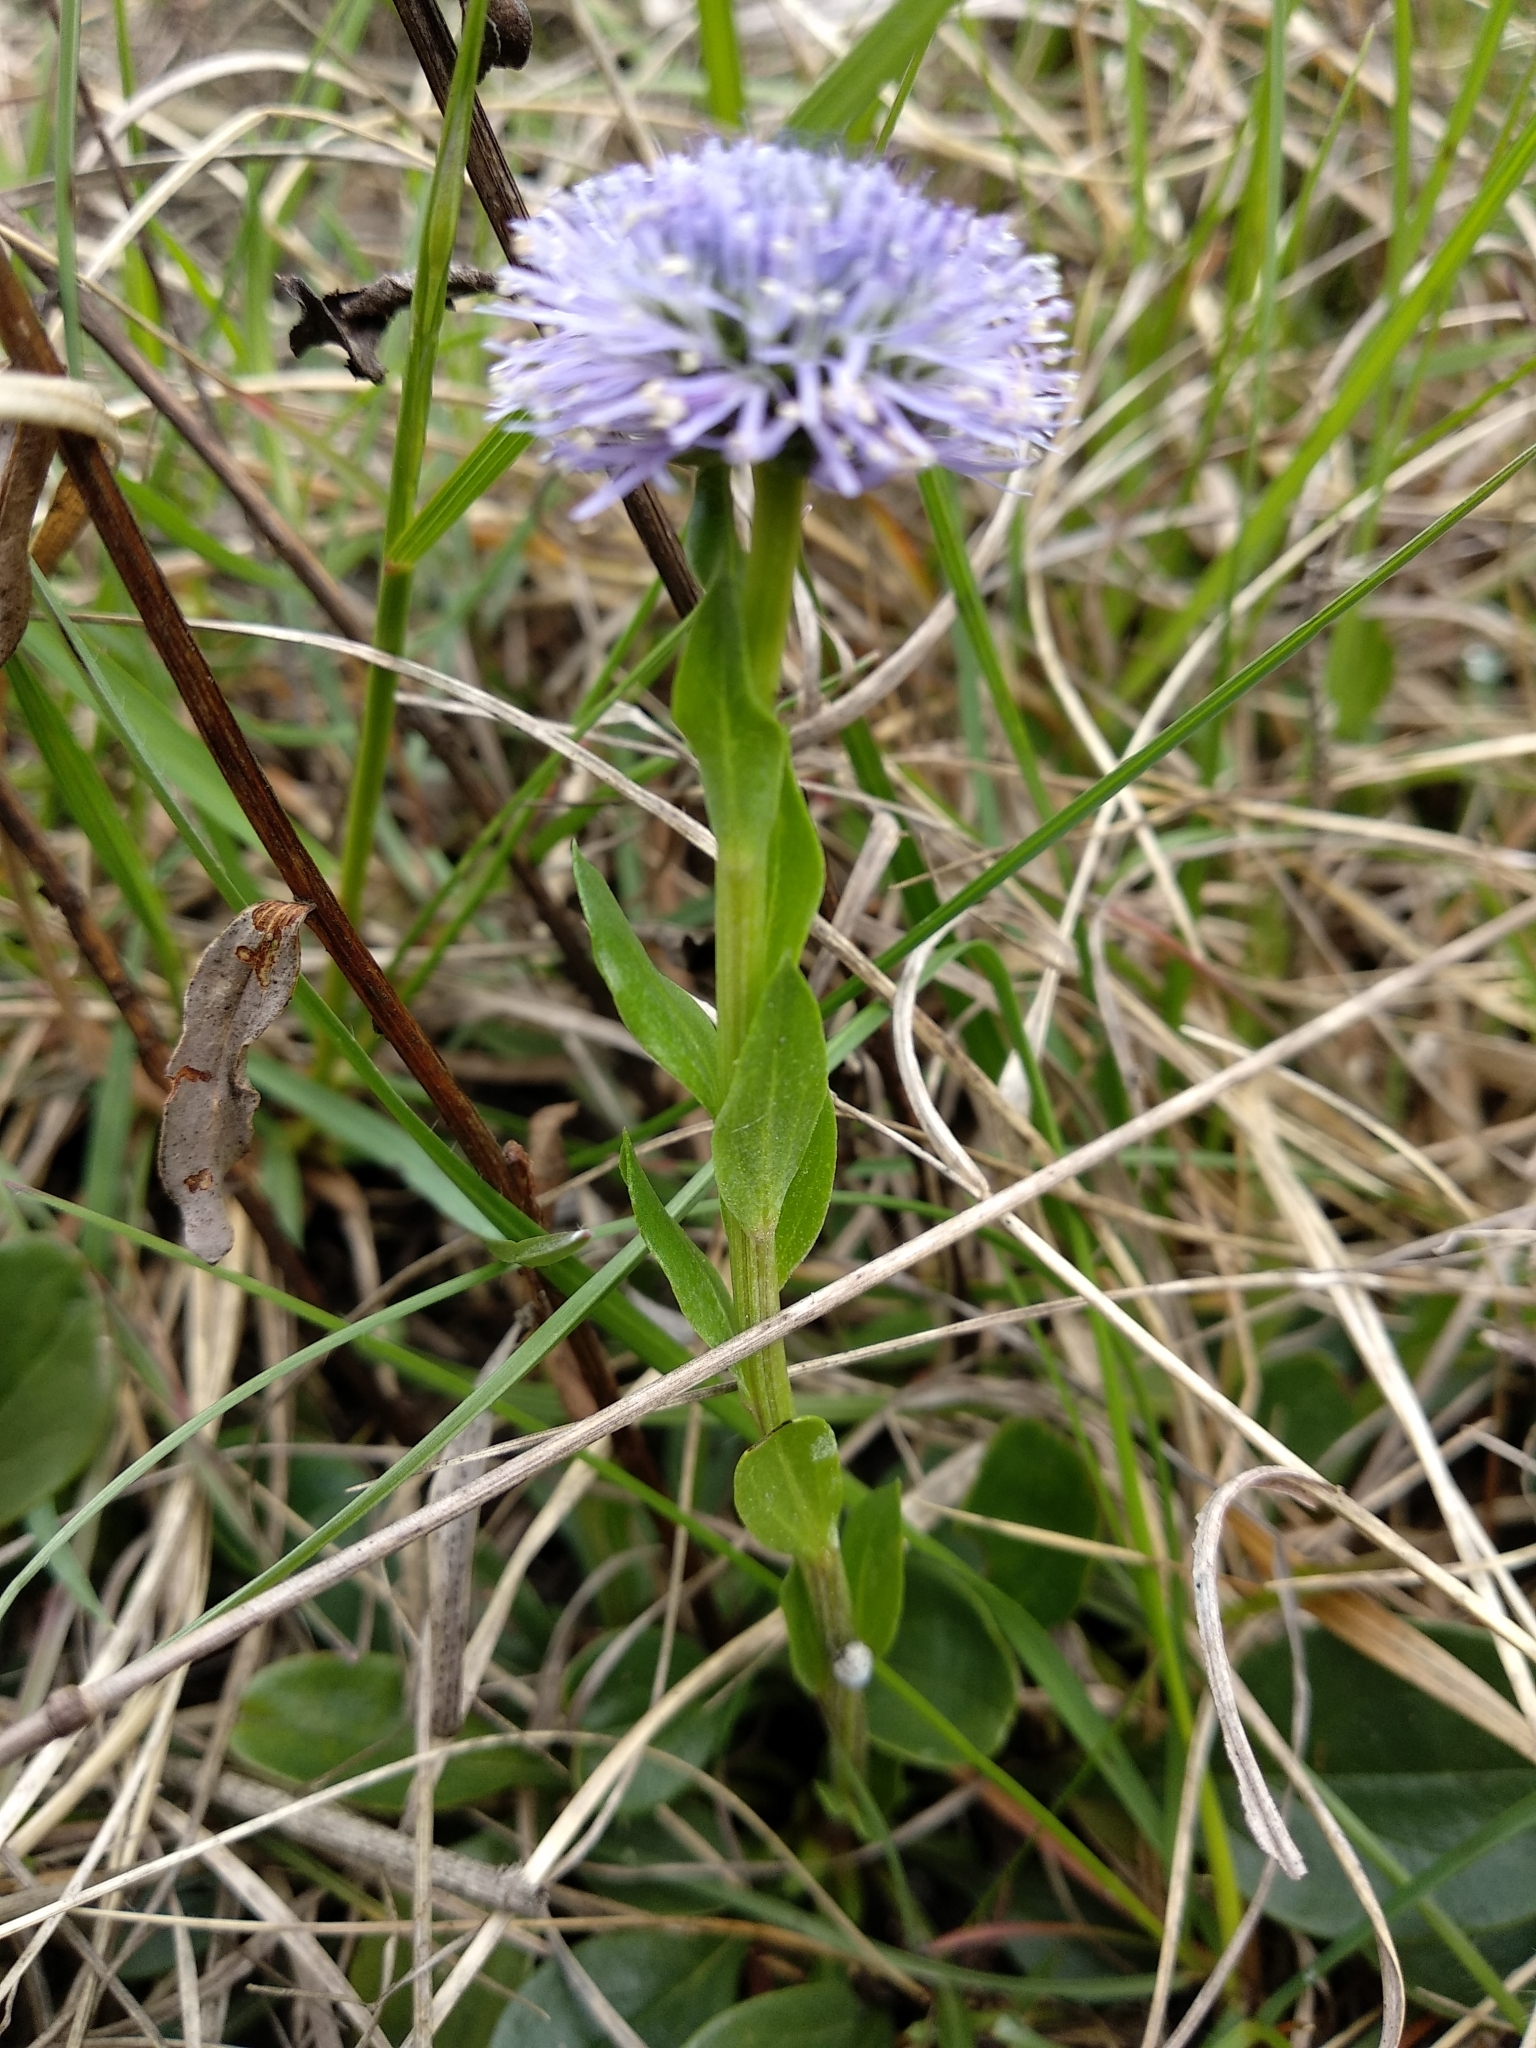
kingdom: Plantae
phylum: Tracheophyta
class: Magnoliopsida
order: Lamiales
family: Plantaginaceae
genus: Globularia
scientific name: Globularia bisnagarica
